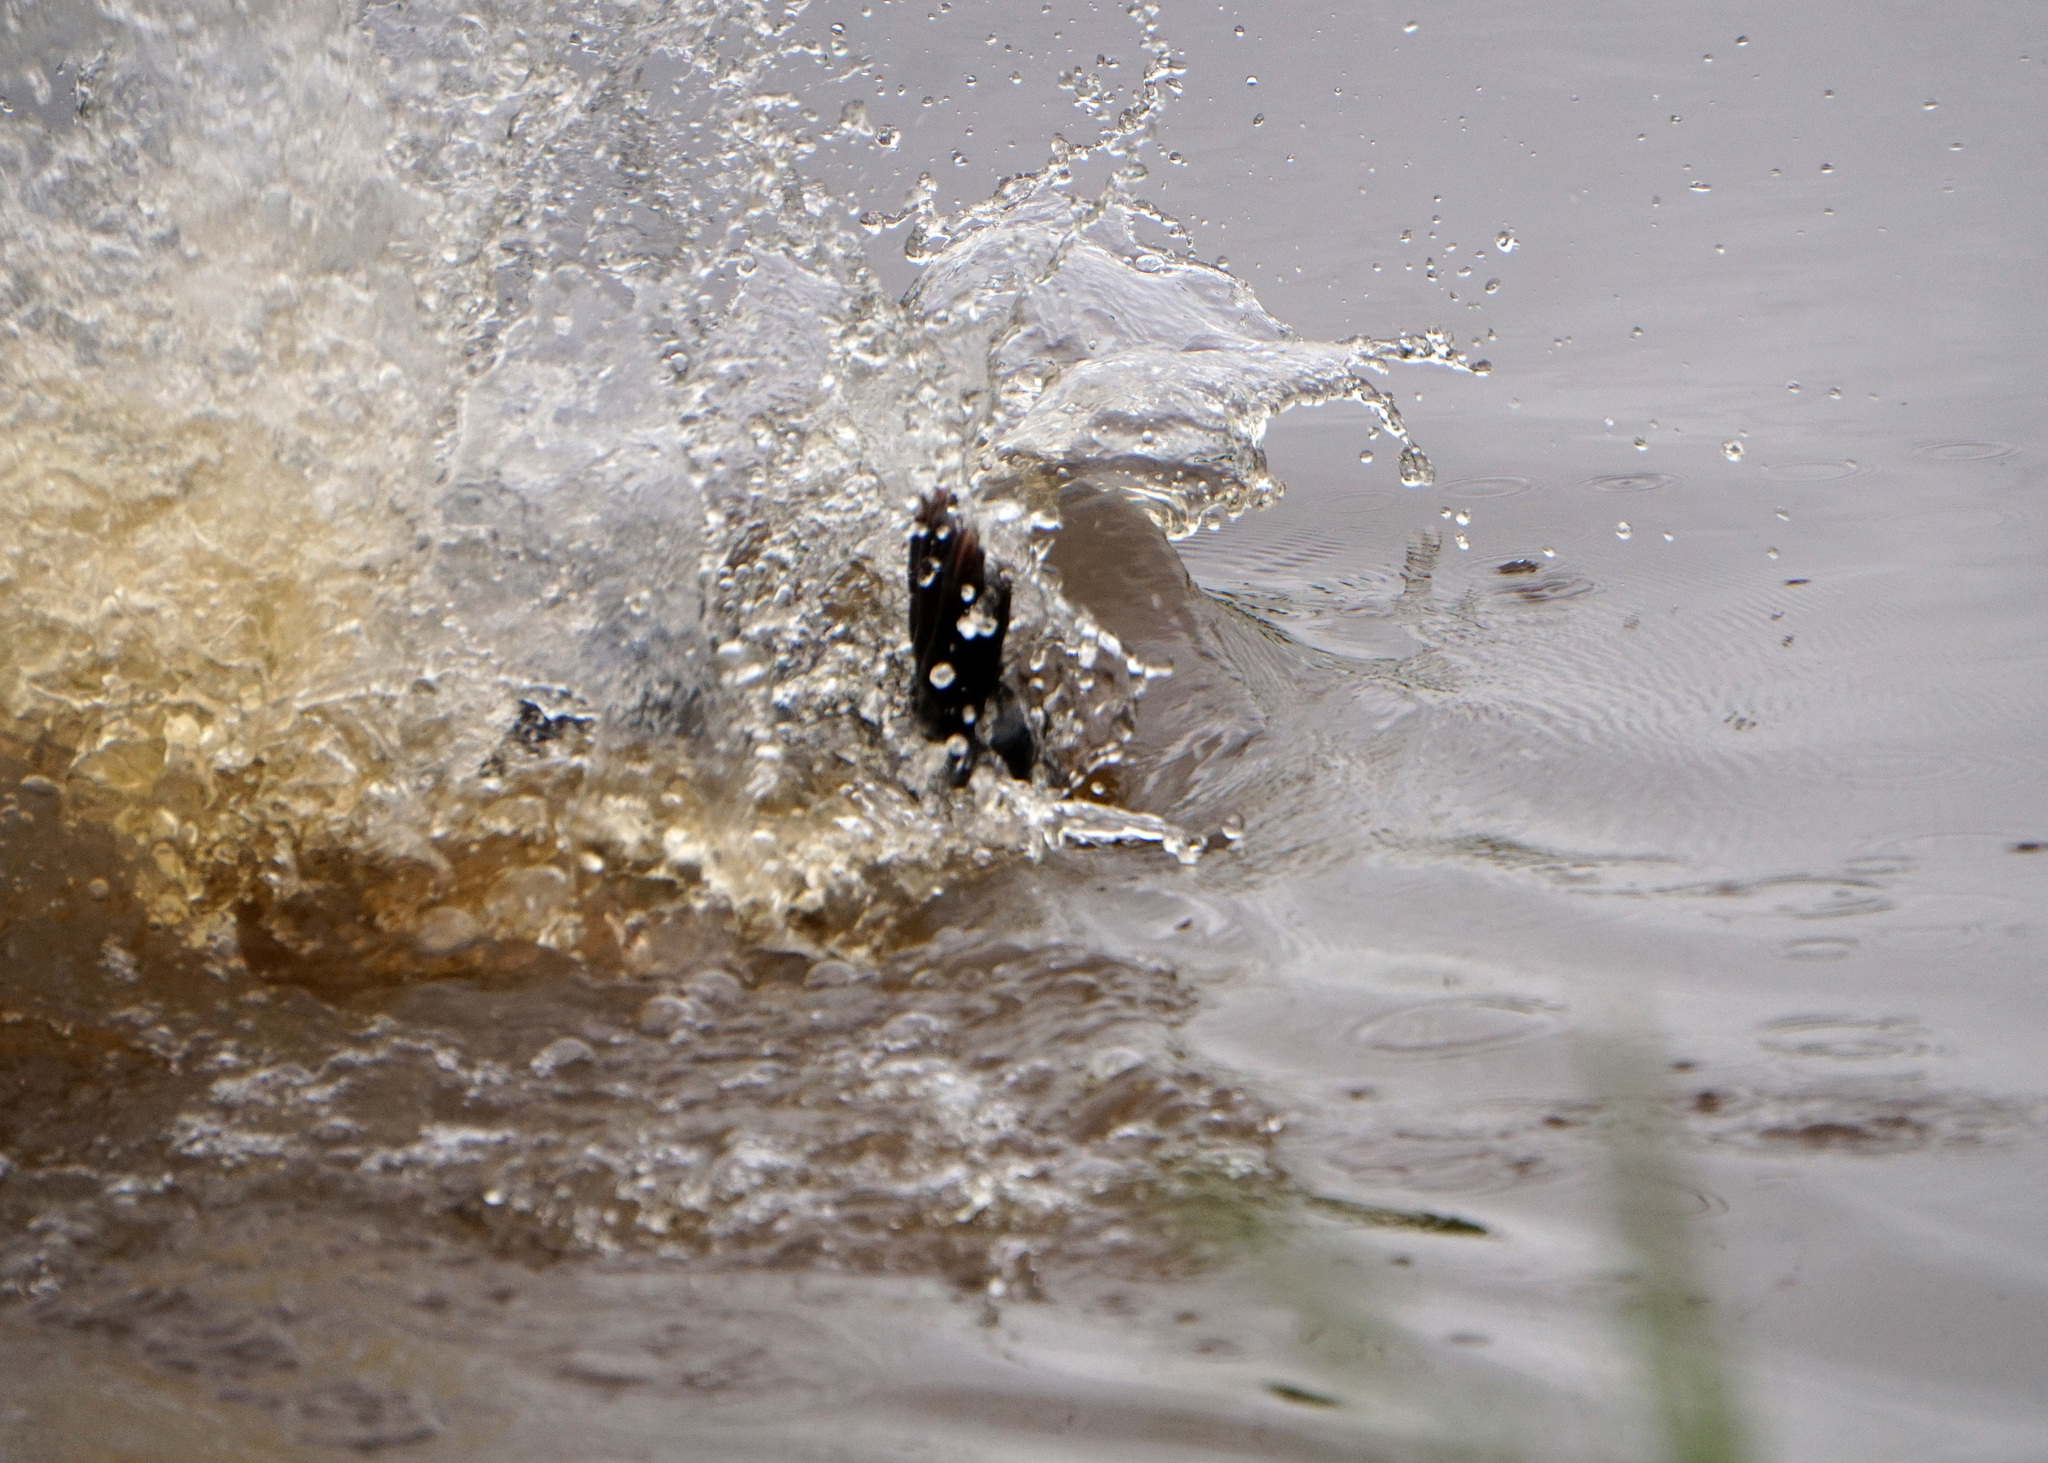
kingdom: Animalia
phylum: Chordata
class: Mammalia
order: Rodentia
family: Castoridae
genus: Castor
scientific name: Castor canadensis
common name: American beaver
